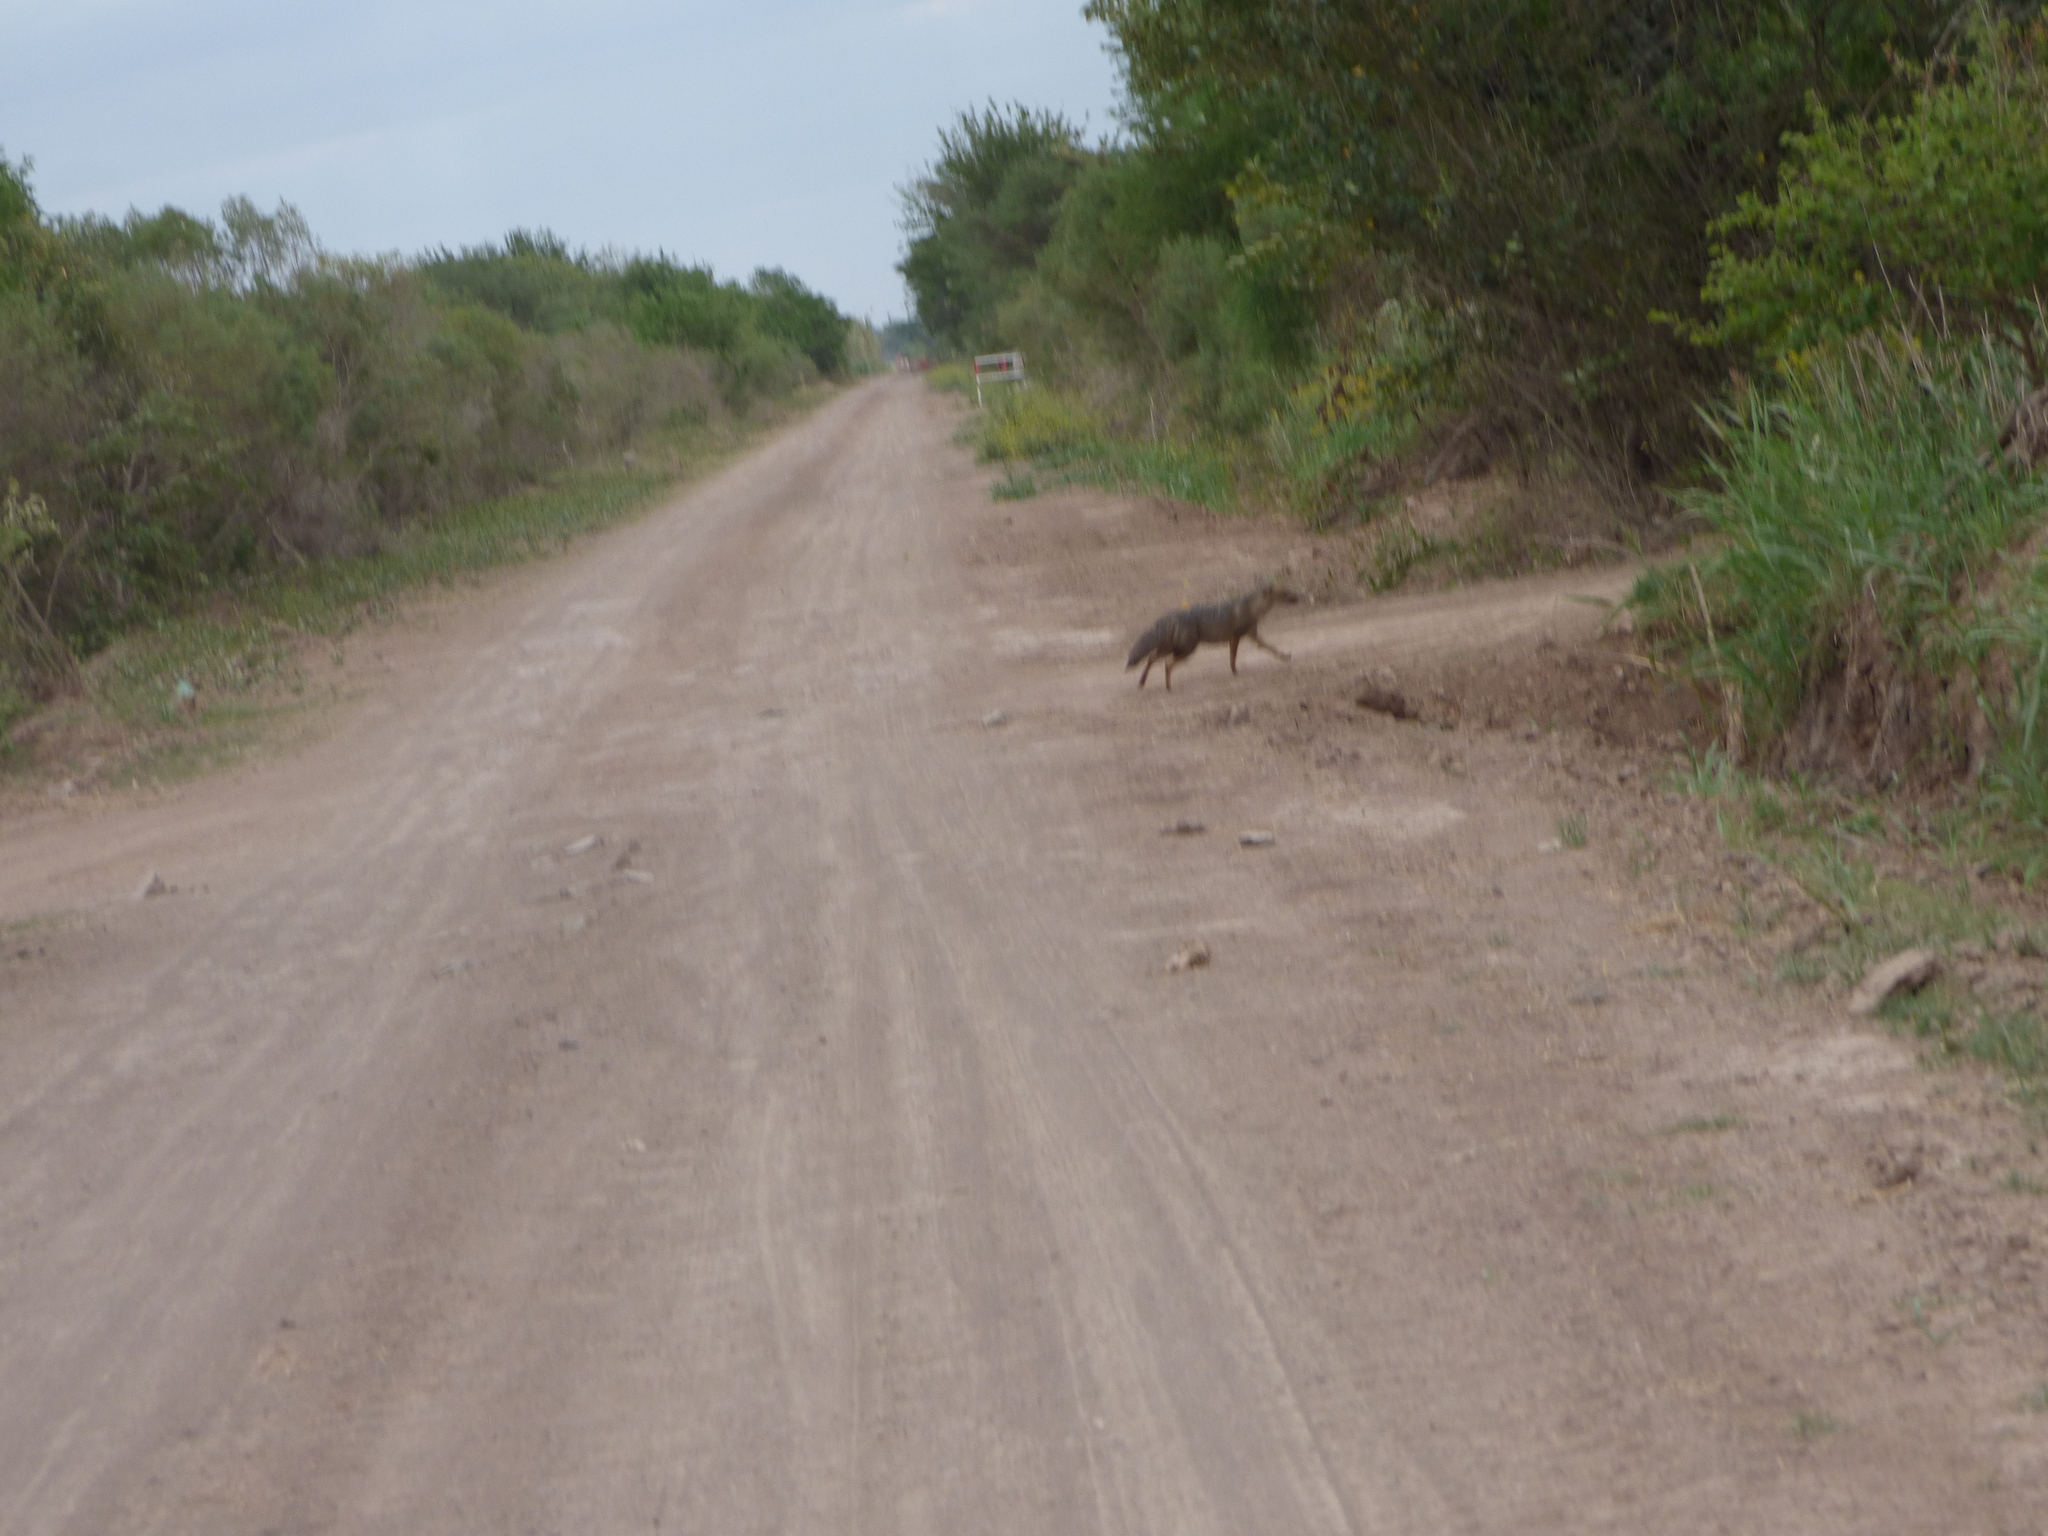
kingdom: Animalia
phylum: Chordata
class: Mammalia
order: Carnivora
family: Canidae
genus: Lycalopex
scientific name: Lycalopex gymnocercus
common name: Pampas fox
